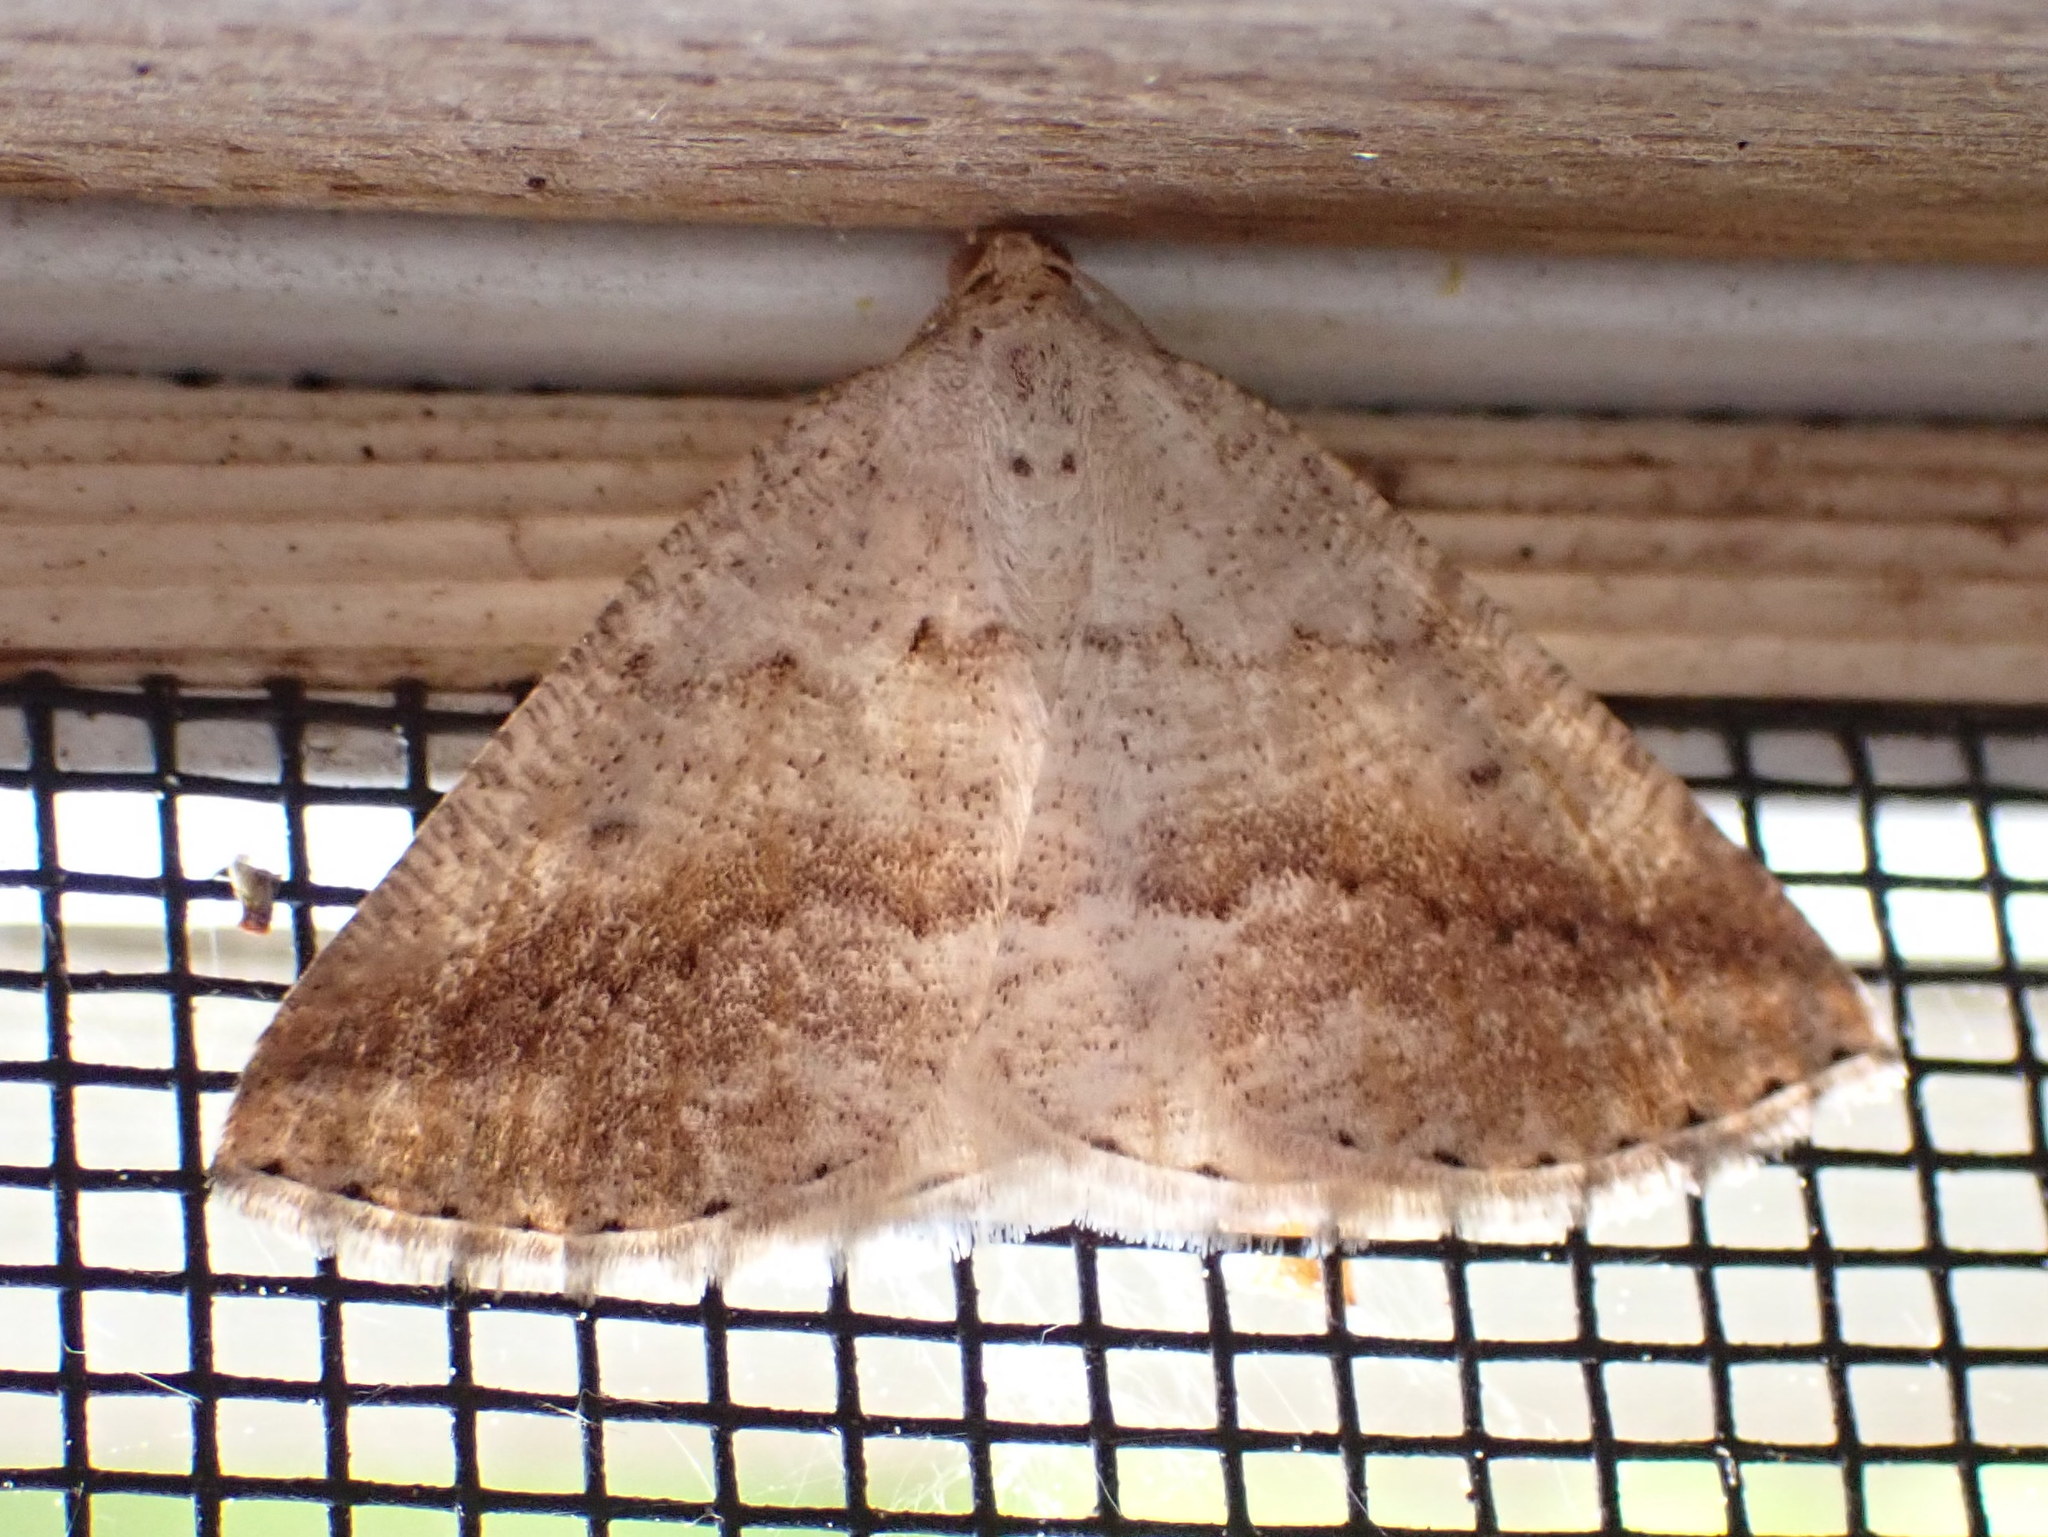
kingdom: Animalia
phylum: Arthropoda
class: Insecta
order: Lepidoptera
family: Geometridae
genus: Tacparia
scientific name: Tacparia detersata
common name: Pale alder moth
